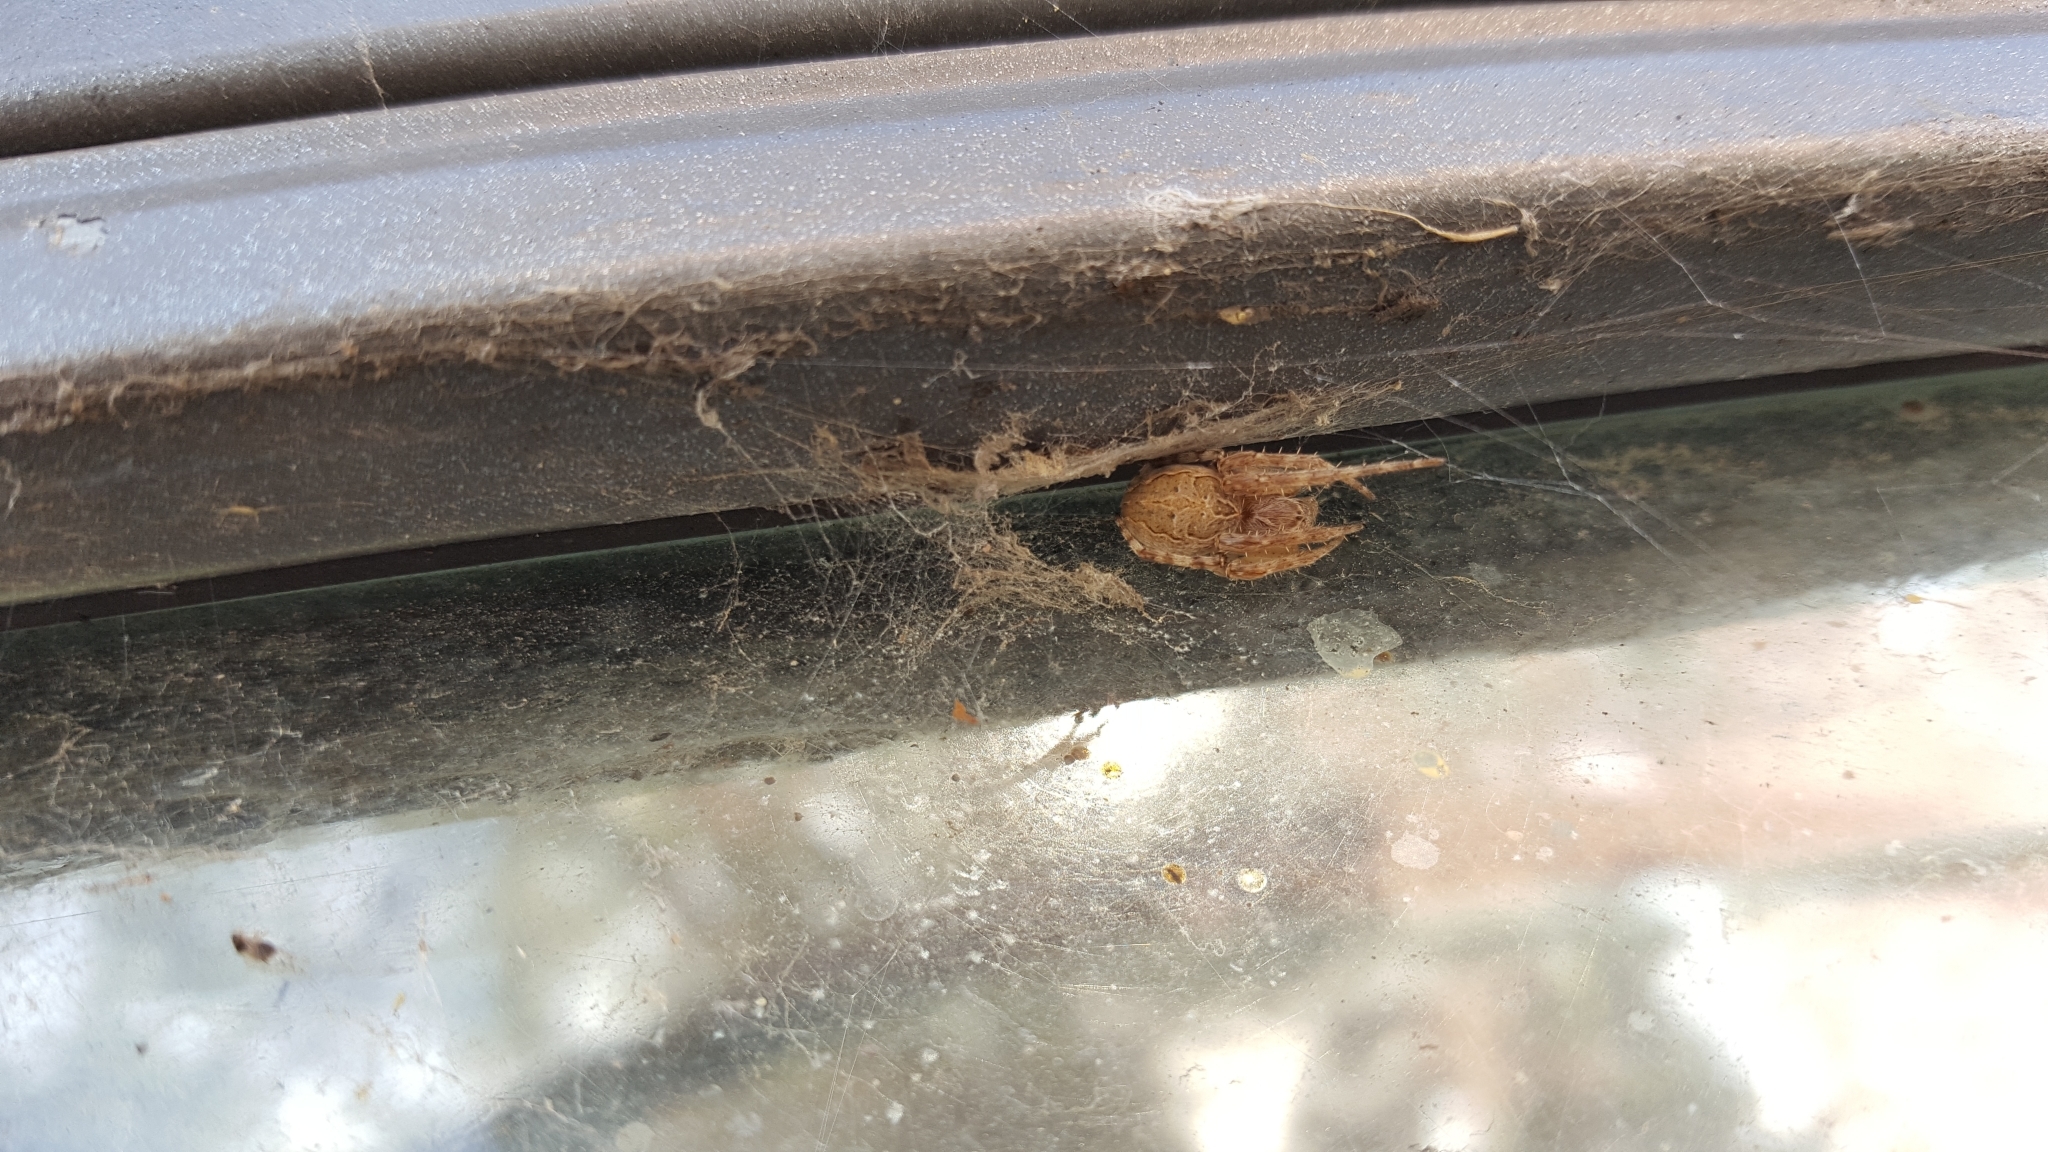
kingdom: Animalia
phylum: Arthropoda
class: Arachnida
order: Araneae
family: Araneidae
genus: Larinioides
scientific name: Larinioides sclopetarius
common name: Bridge orbweaver
